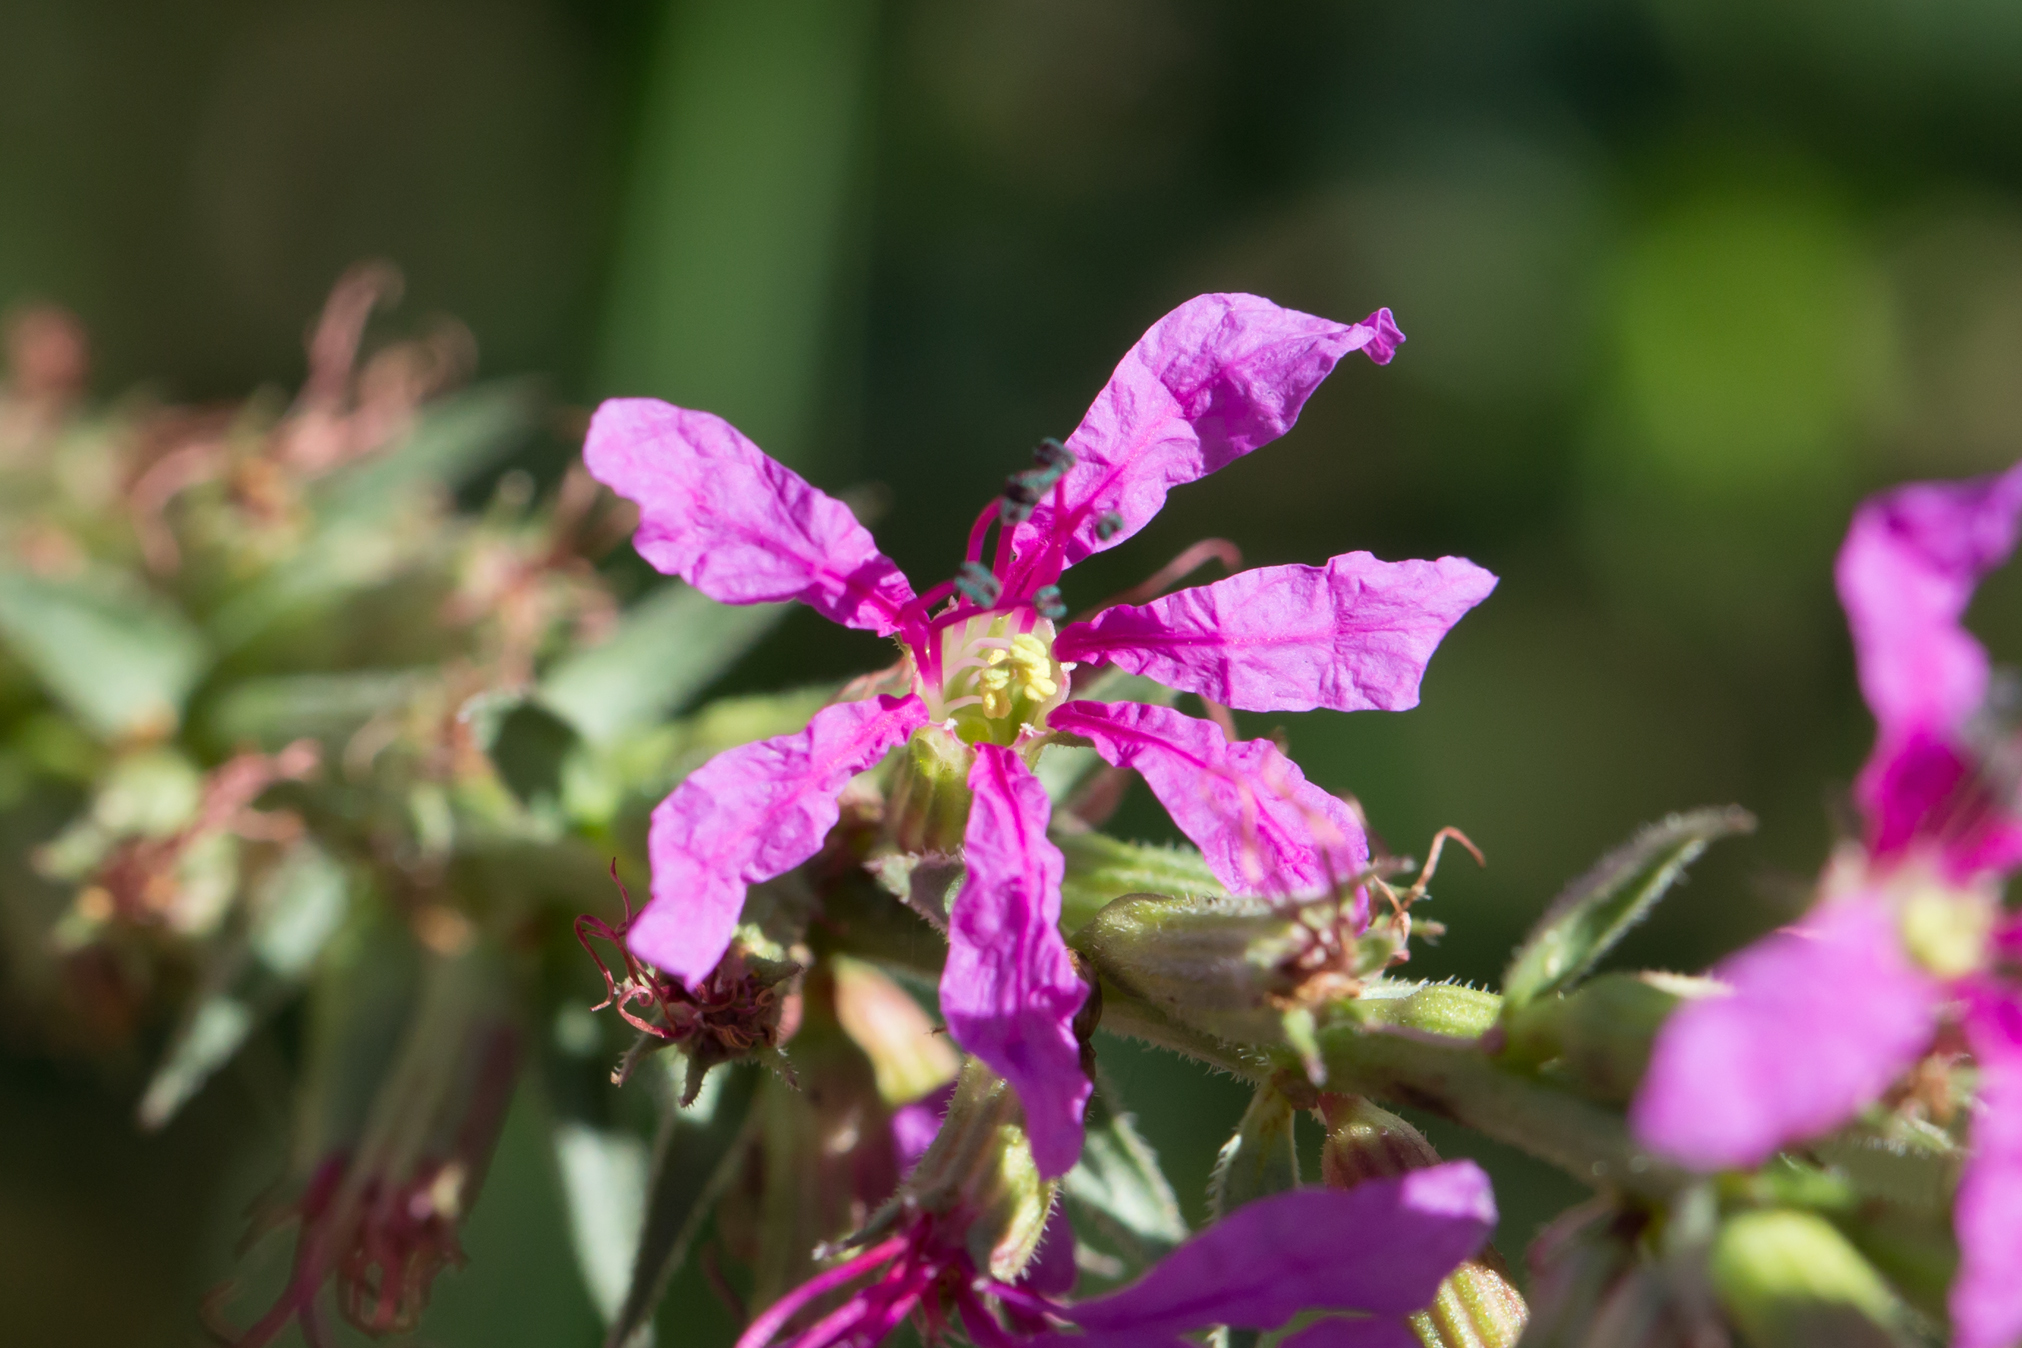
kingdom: Plantae
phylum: Tracheophyta
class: Magnoliopsida
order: Myrtales
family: Lythraceae
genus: Lythrum
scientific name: Lythrum salicaria
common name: Purple loosestrife
